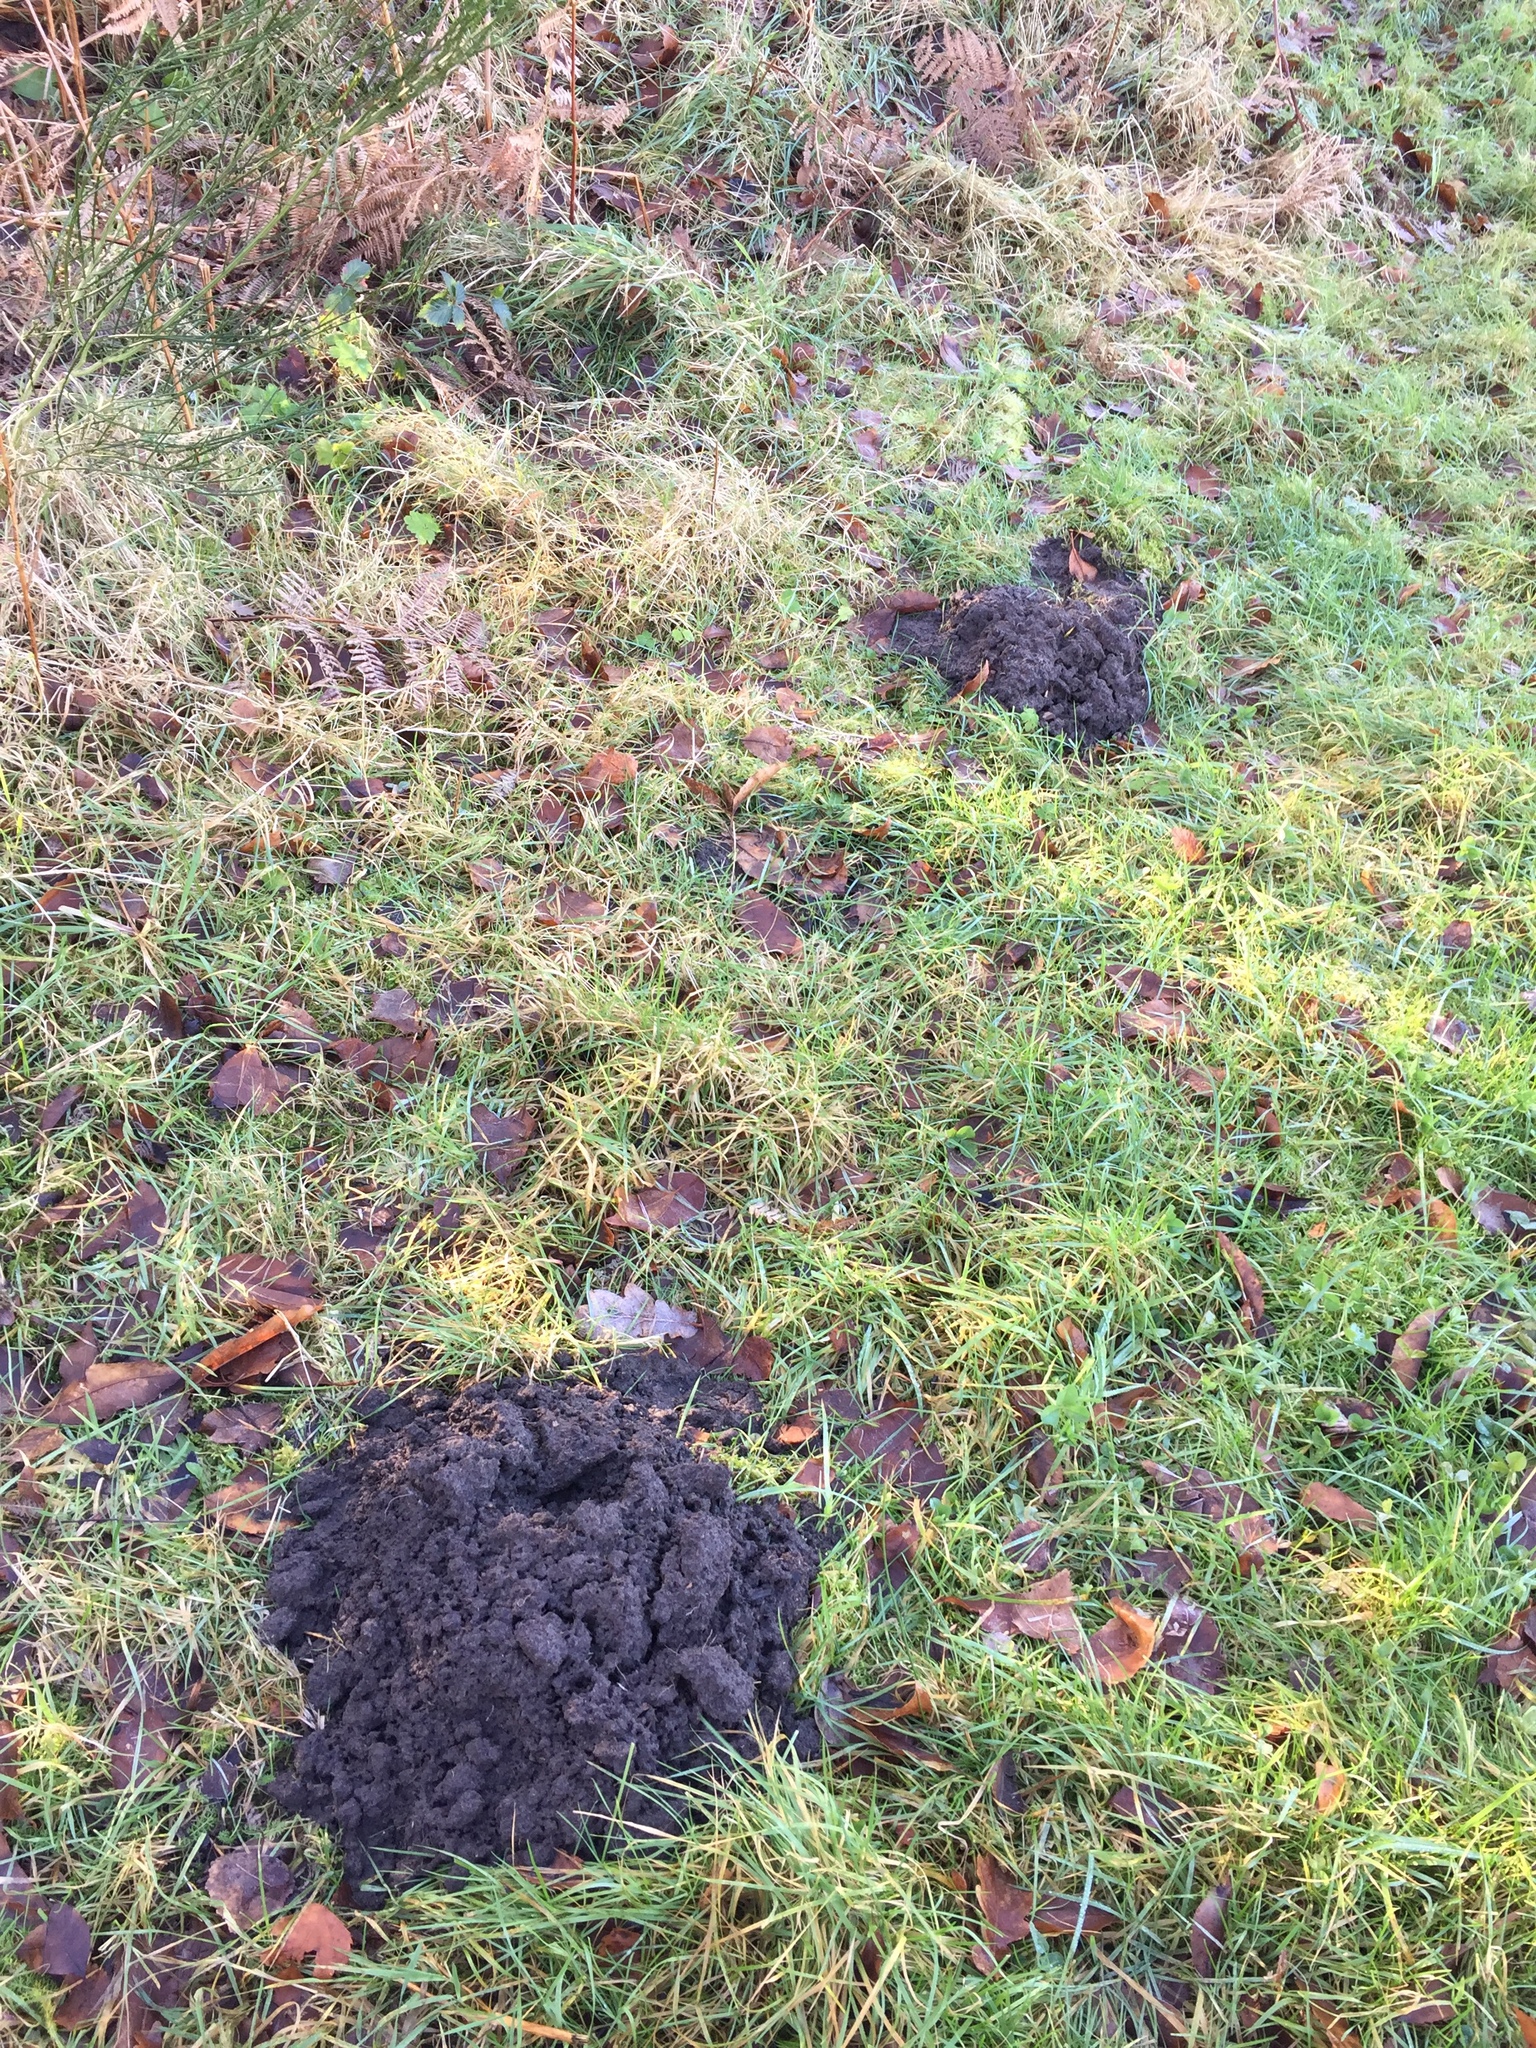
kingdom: Animalia
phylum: Chordata
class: Mammalia
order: Soricomorpha
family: Talpidae
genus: Talpa
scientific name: Talpa europaea
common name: European mole
